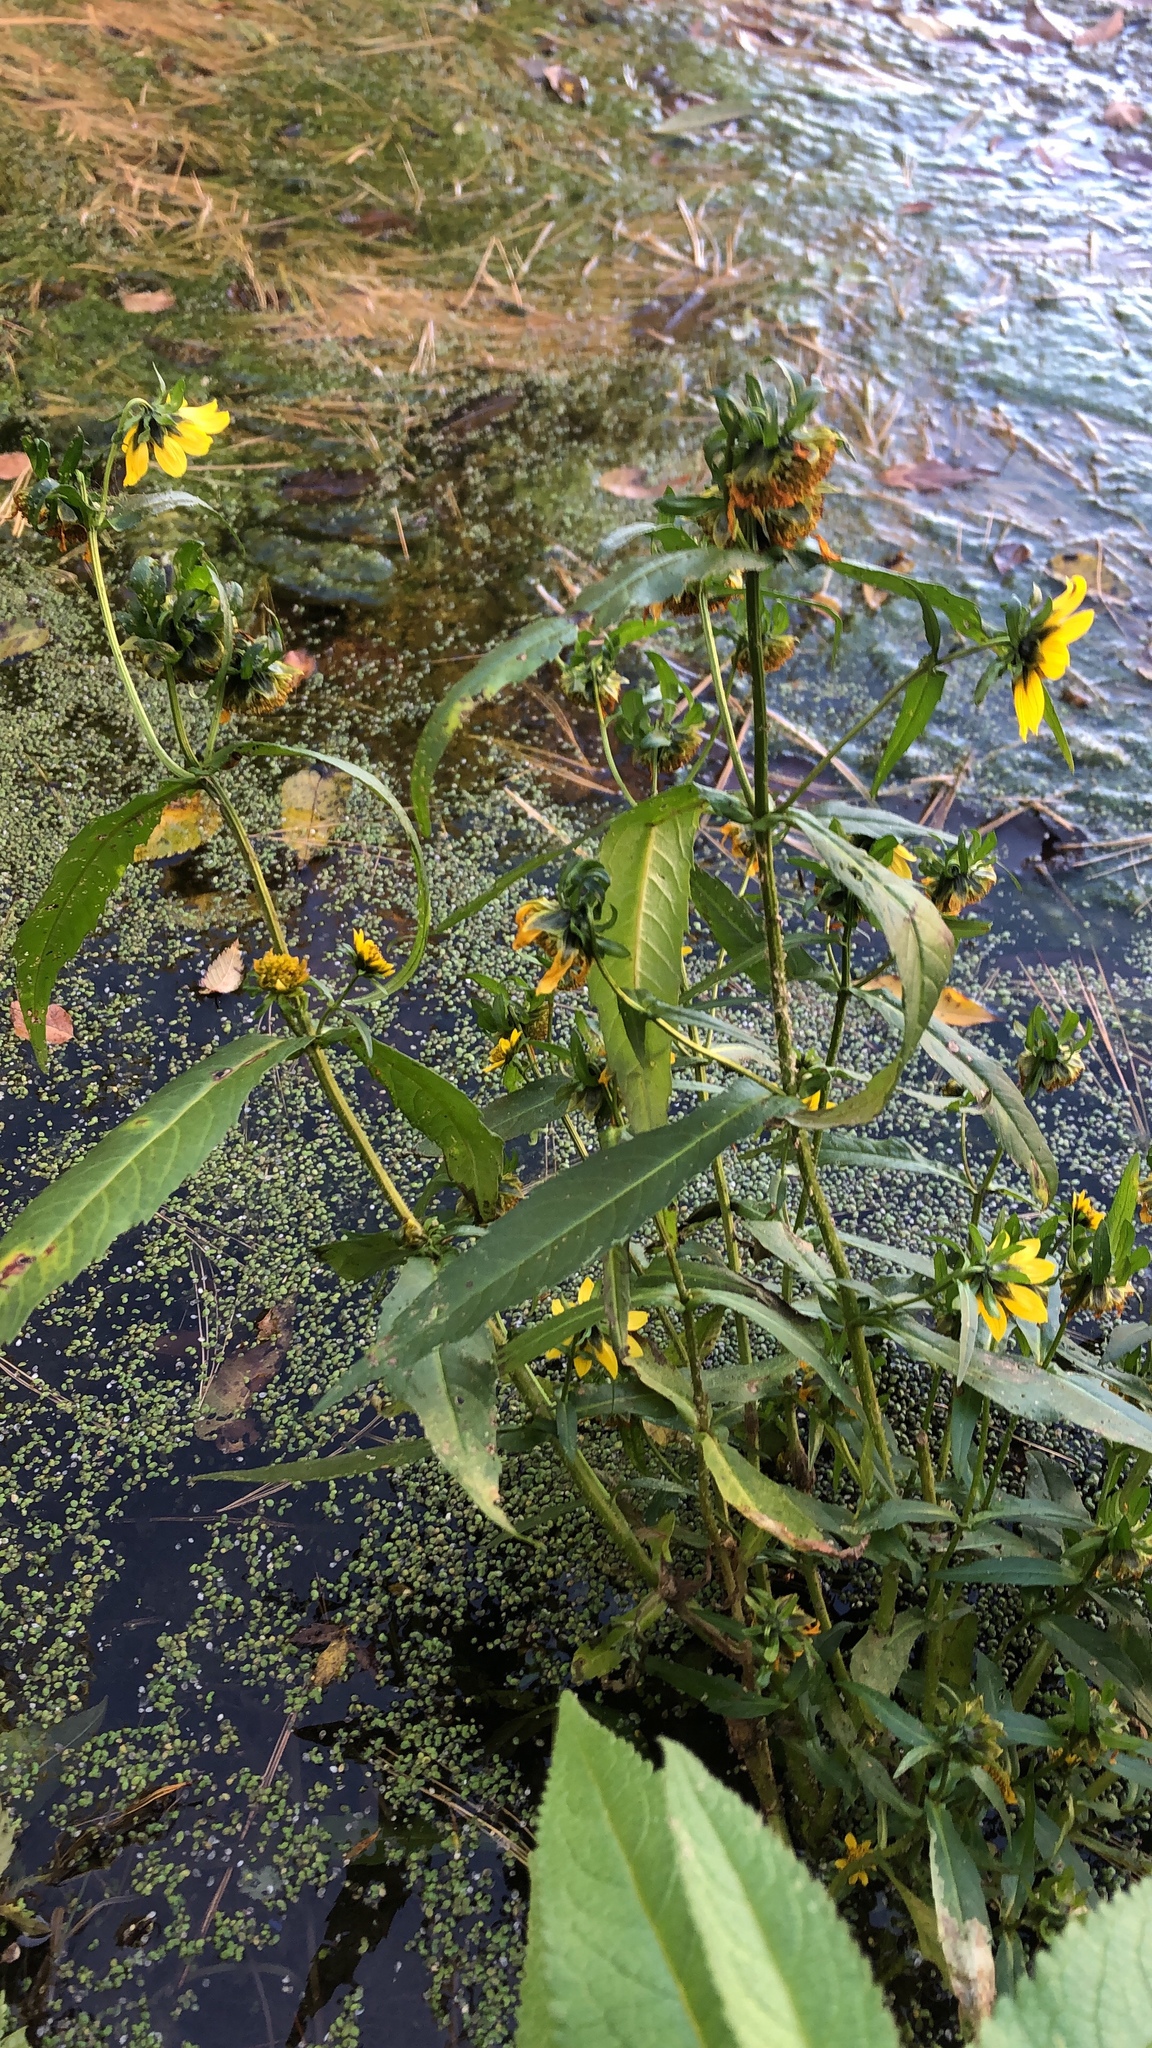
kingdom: Plantae
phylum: Tracheophyta
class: Magnoliopsida
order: Asterales
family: Asteraceae
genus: Bidens
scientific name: Bidens cernua
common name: Nodding bur-marigold
